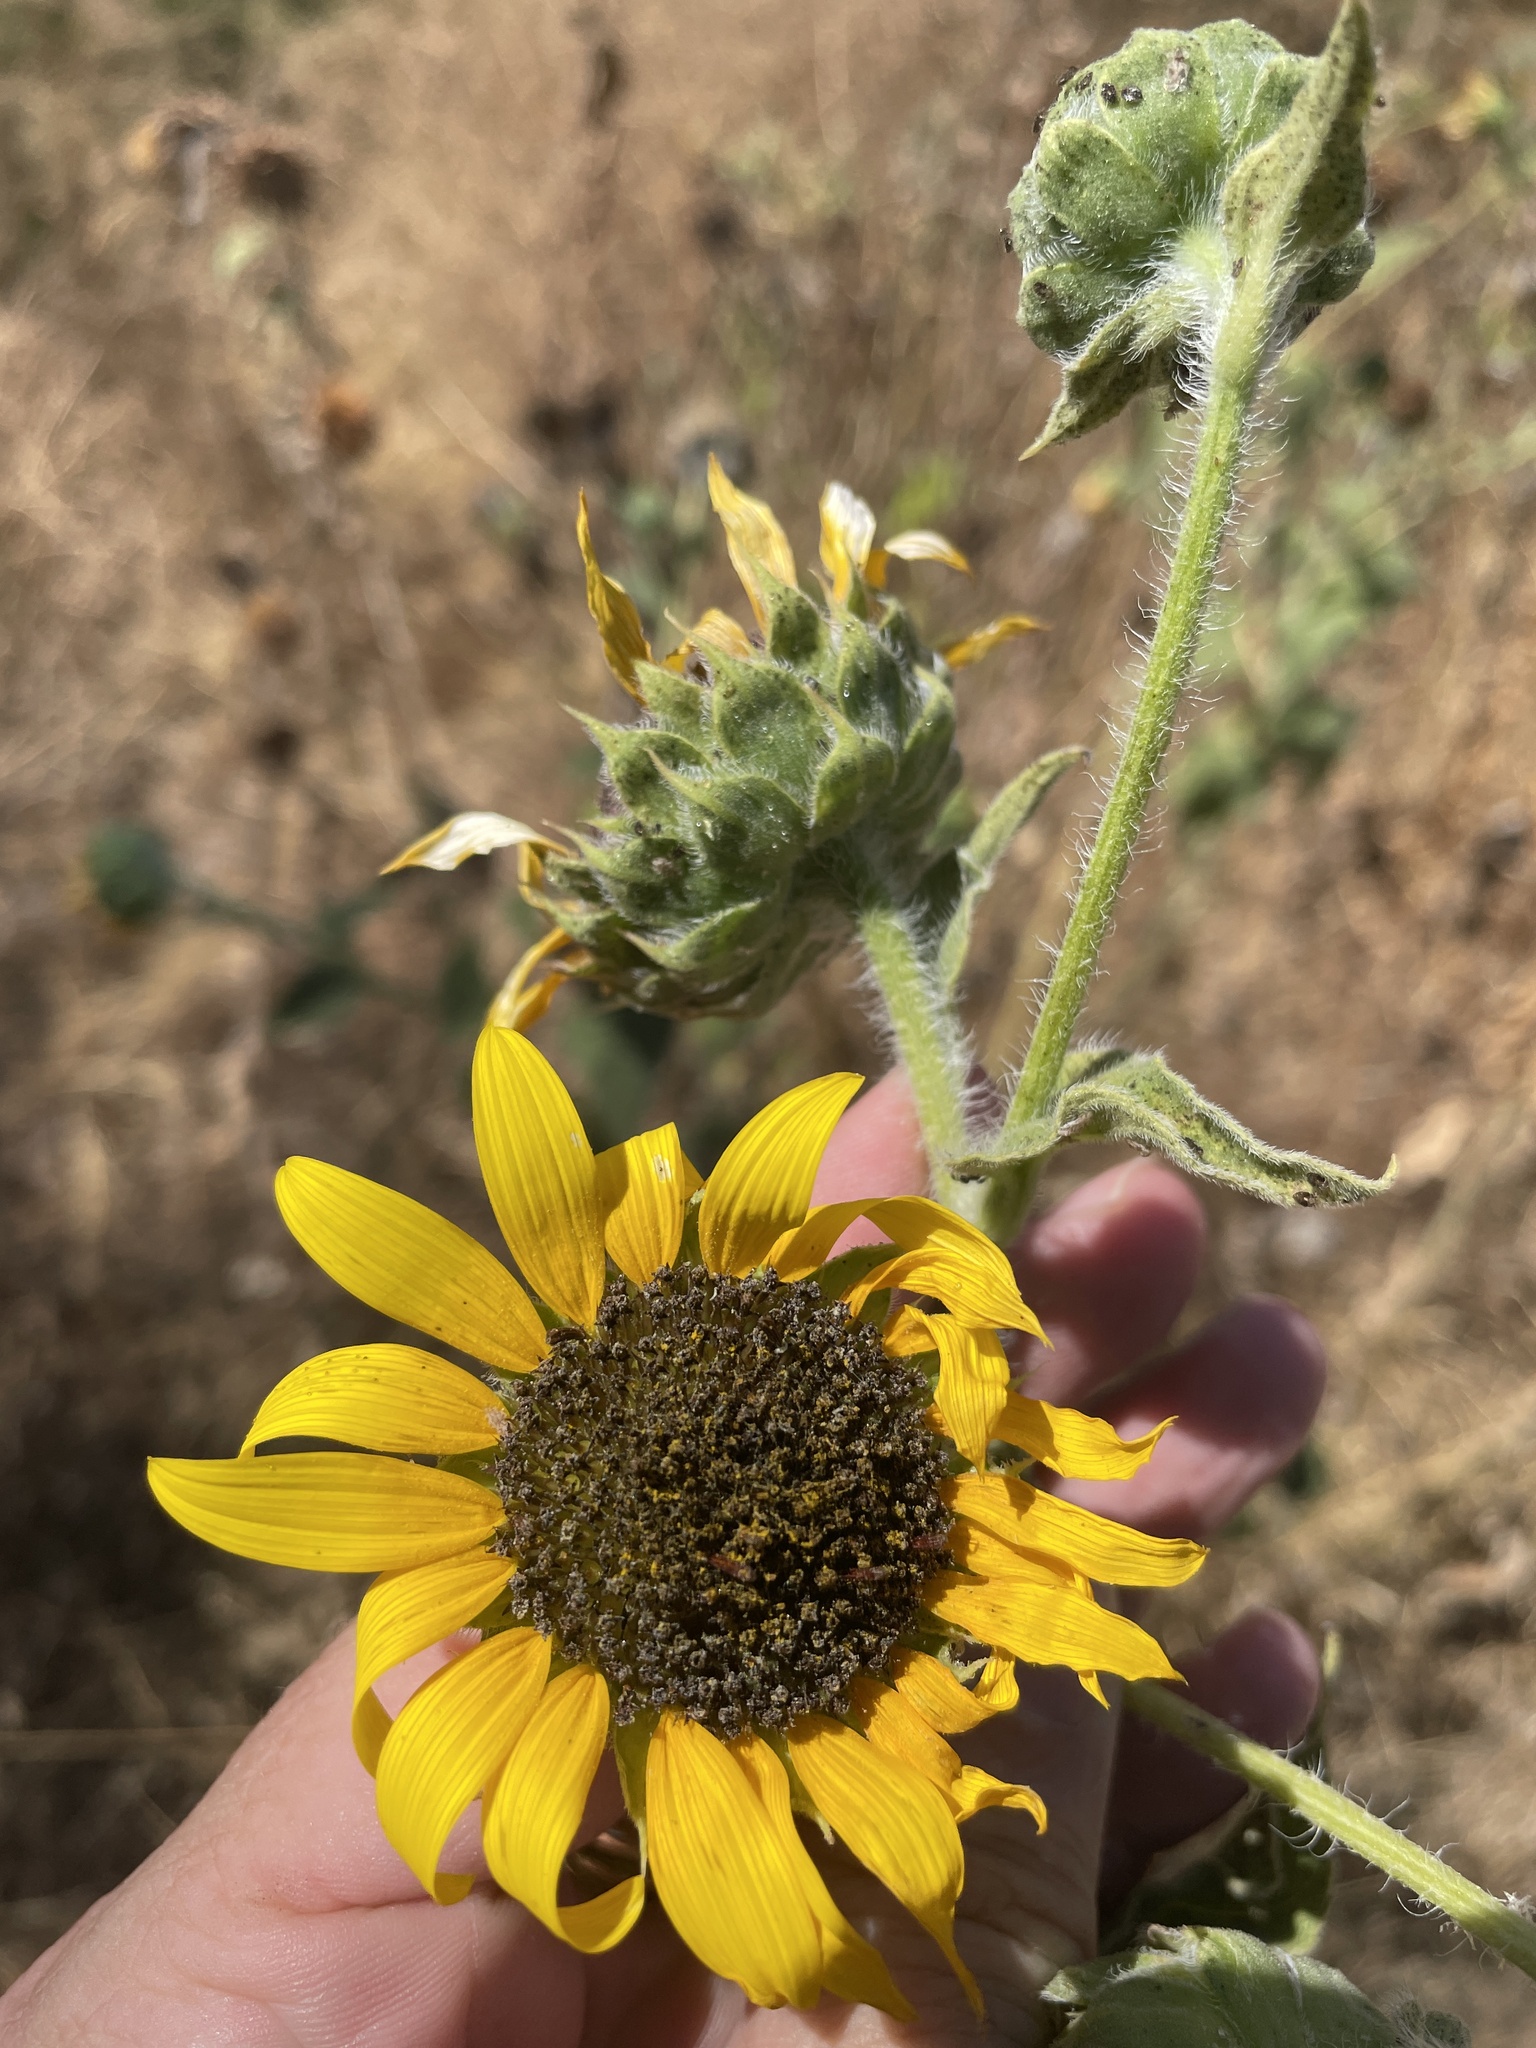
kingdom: Plantae
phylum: Tracheophyta
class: Magnoliopsida
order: Asterales
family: Asteraceae
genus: Helianthus
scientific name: Helianthus annuus
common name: Sunflower
